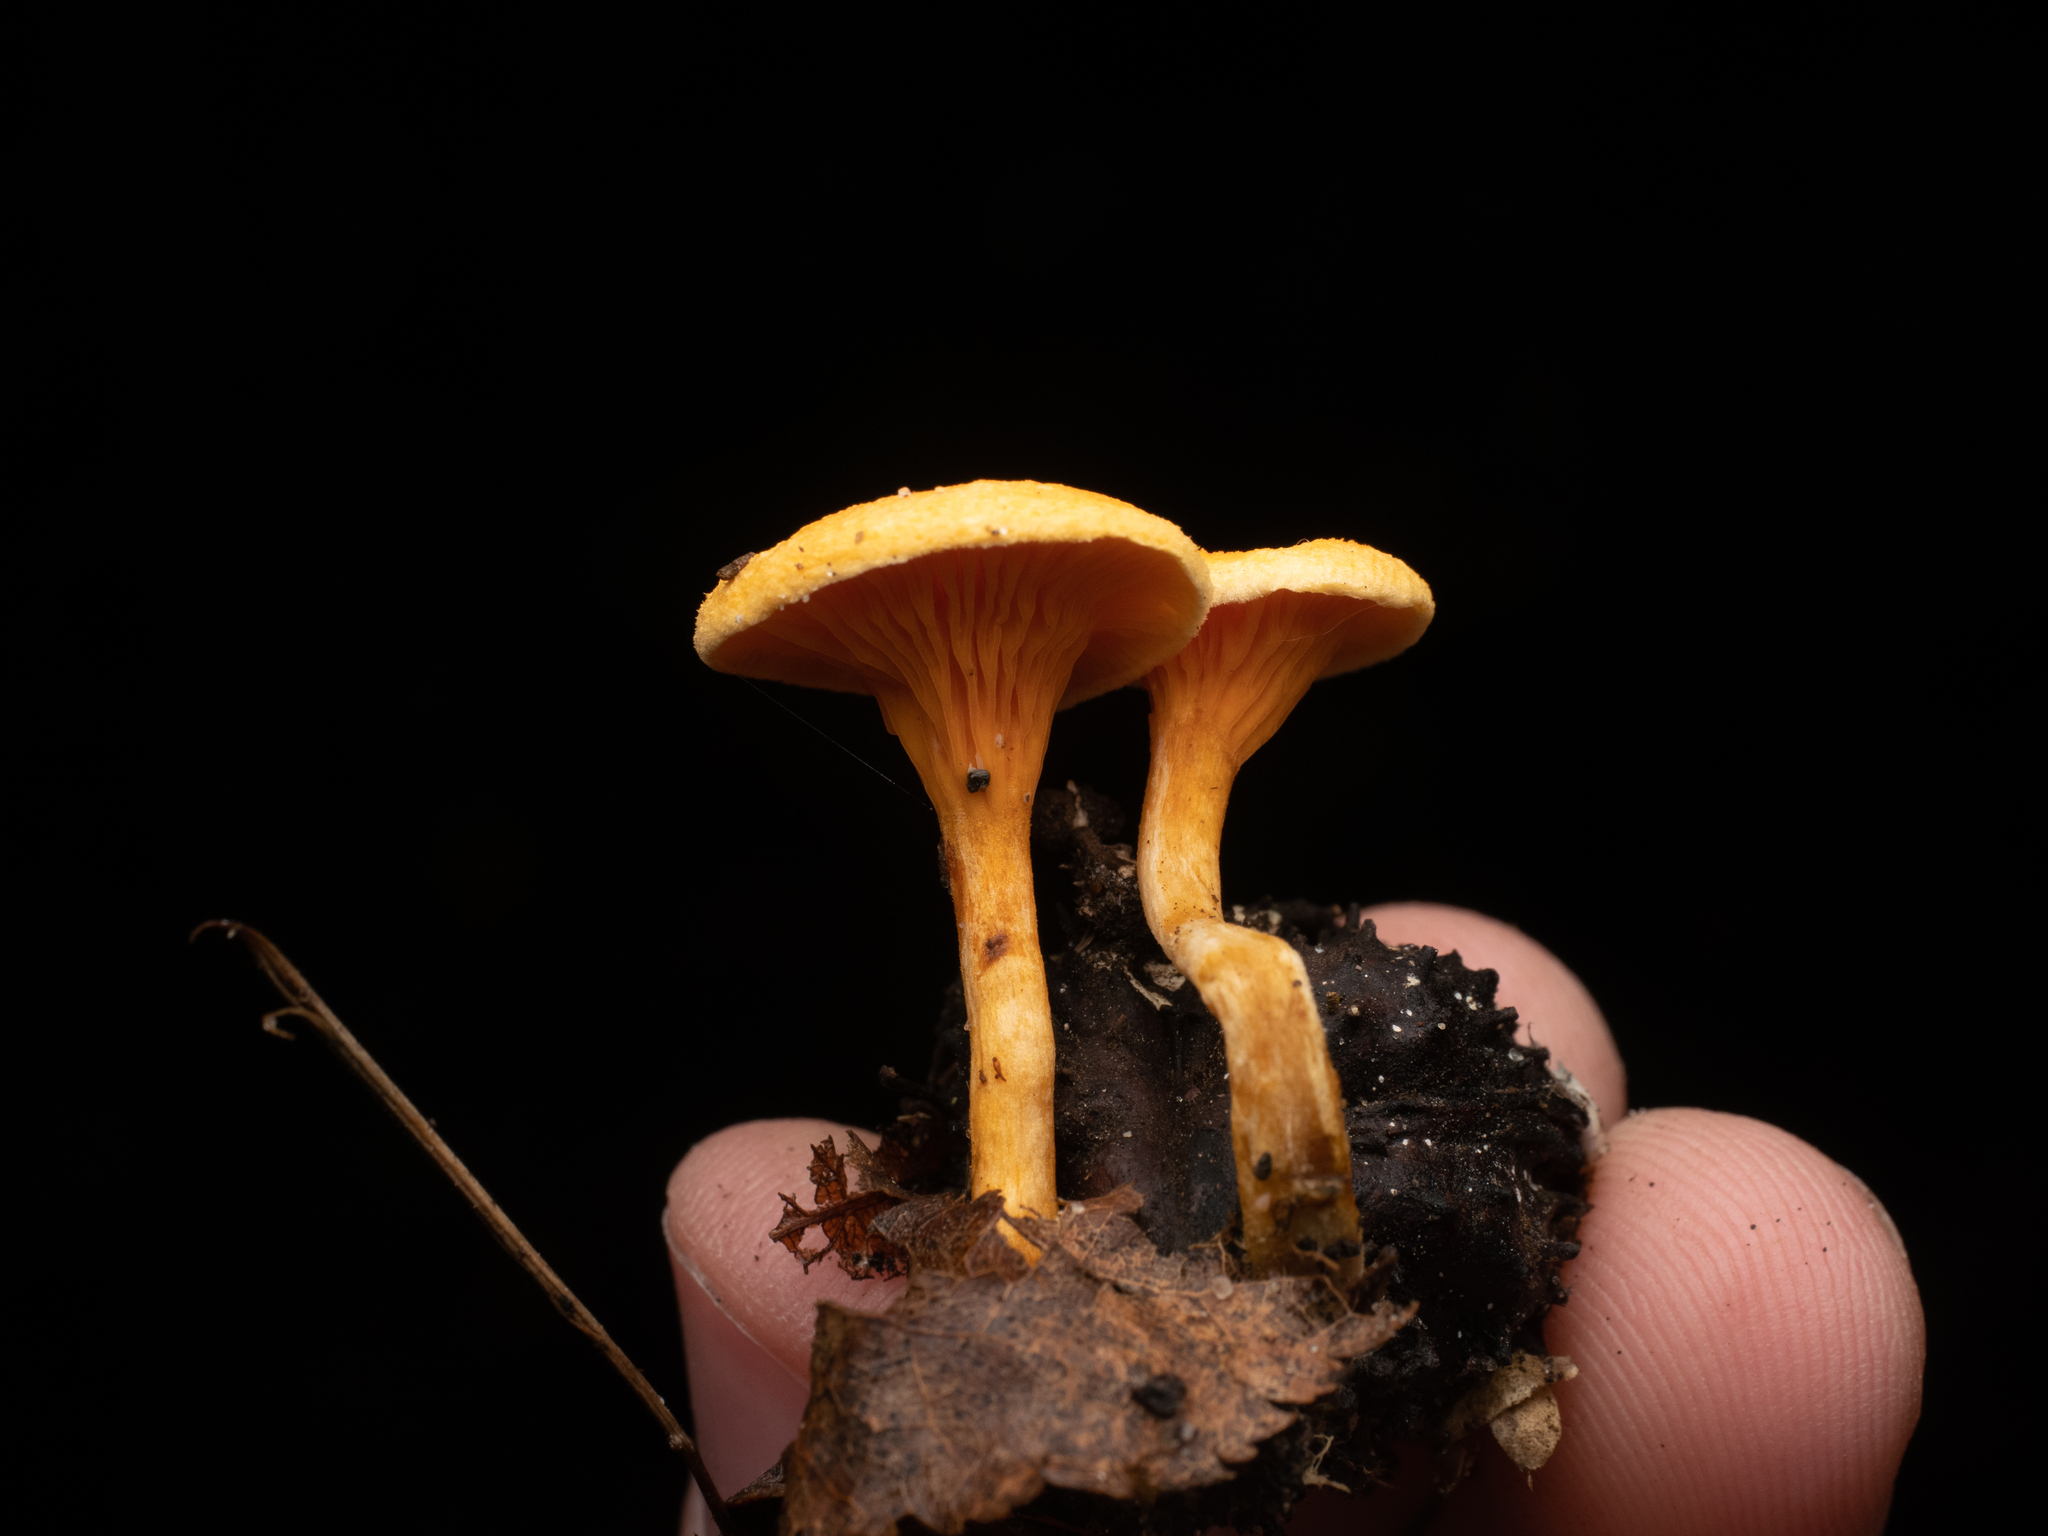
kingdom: Fungi
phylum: Basidiomycota
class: Agaricomycetes
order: Boletales
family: Hygrophoropsidaceae
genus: Hygrophoropsis
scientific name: Hygrophoropsis aurantiaca
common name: False chanterelle
